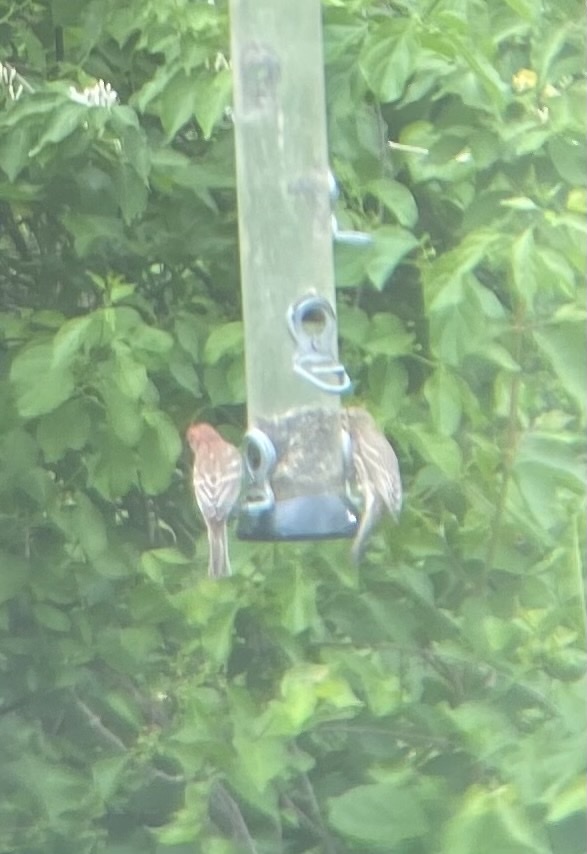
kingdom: Animalia
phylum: Chordata
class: Aves
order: Passeriformes
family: Fringillidae
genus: Haemorhous
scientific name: Haemorhous mexicanus
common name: House finch
